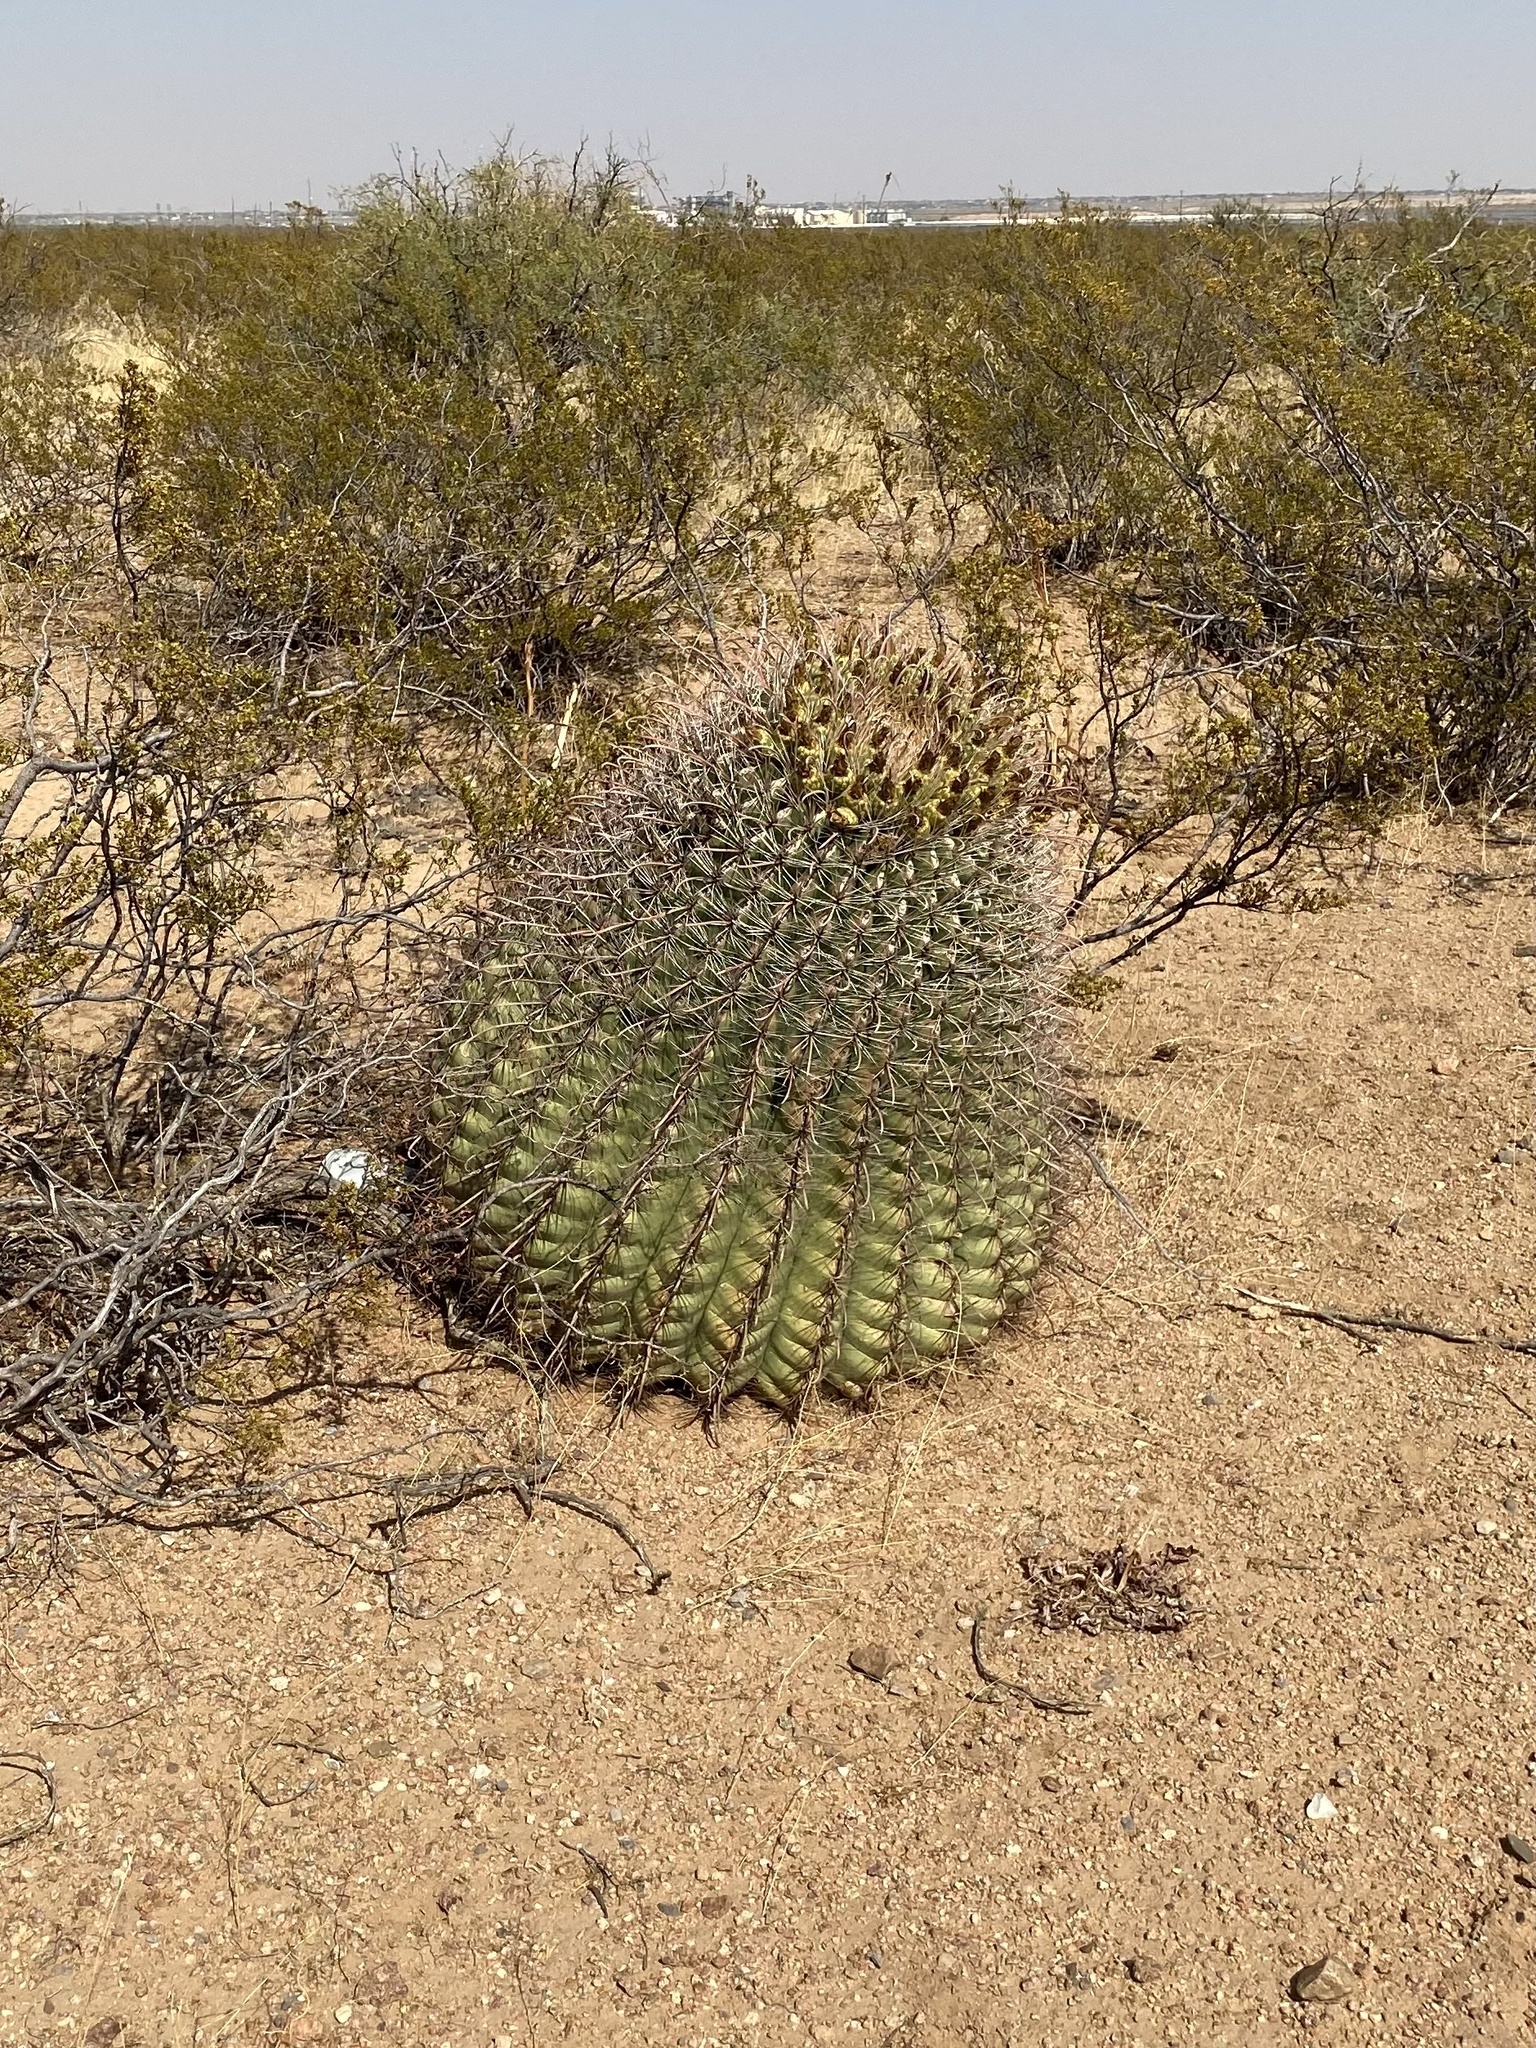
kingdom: Plantae
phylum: Tracheophyta
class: Magnoliopsida
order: Caryophyllales
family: Cactaceae
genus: Ferocactus
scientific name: Ferocactus wislizeni
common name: Candy barrel cactus
